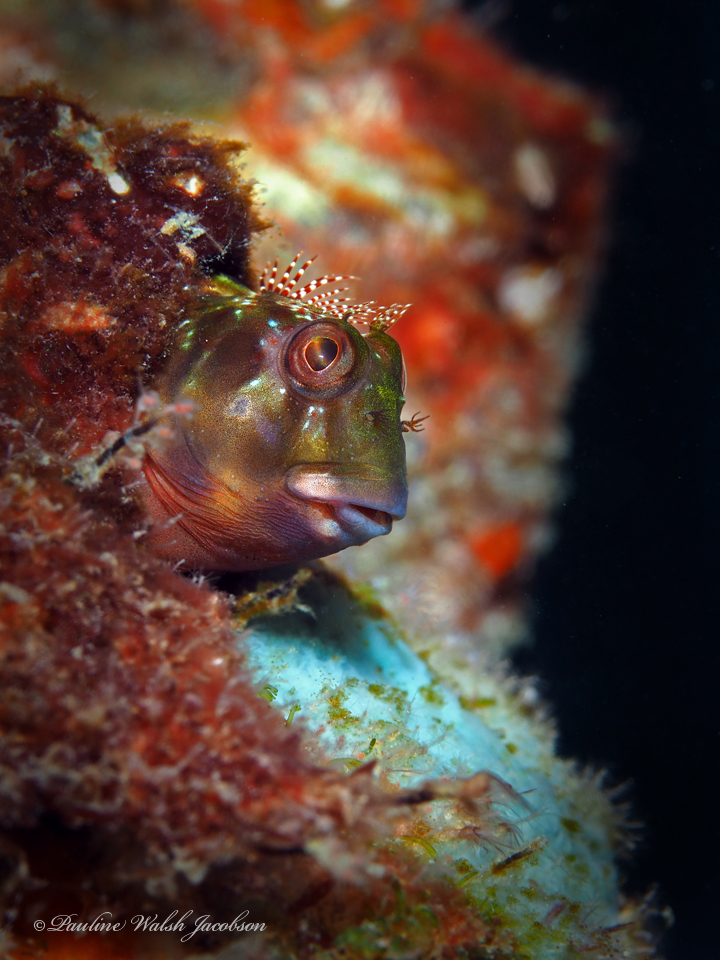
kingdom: Animalia
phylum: Chordata
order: Perciformes
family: Blenniidae
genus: Scartella
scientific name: Scartella cristata
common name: Molly miller
